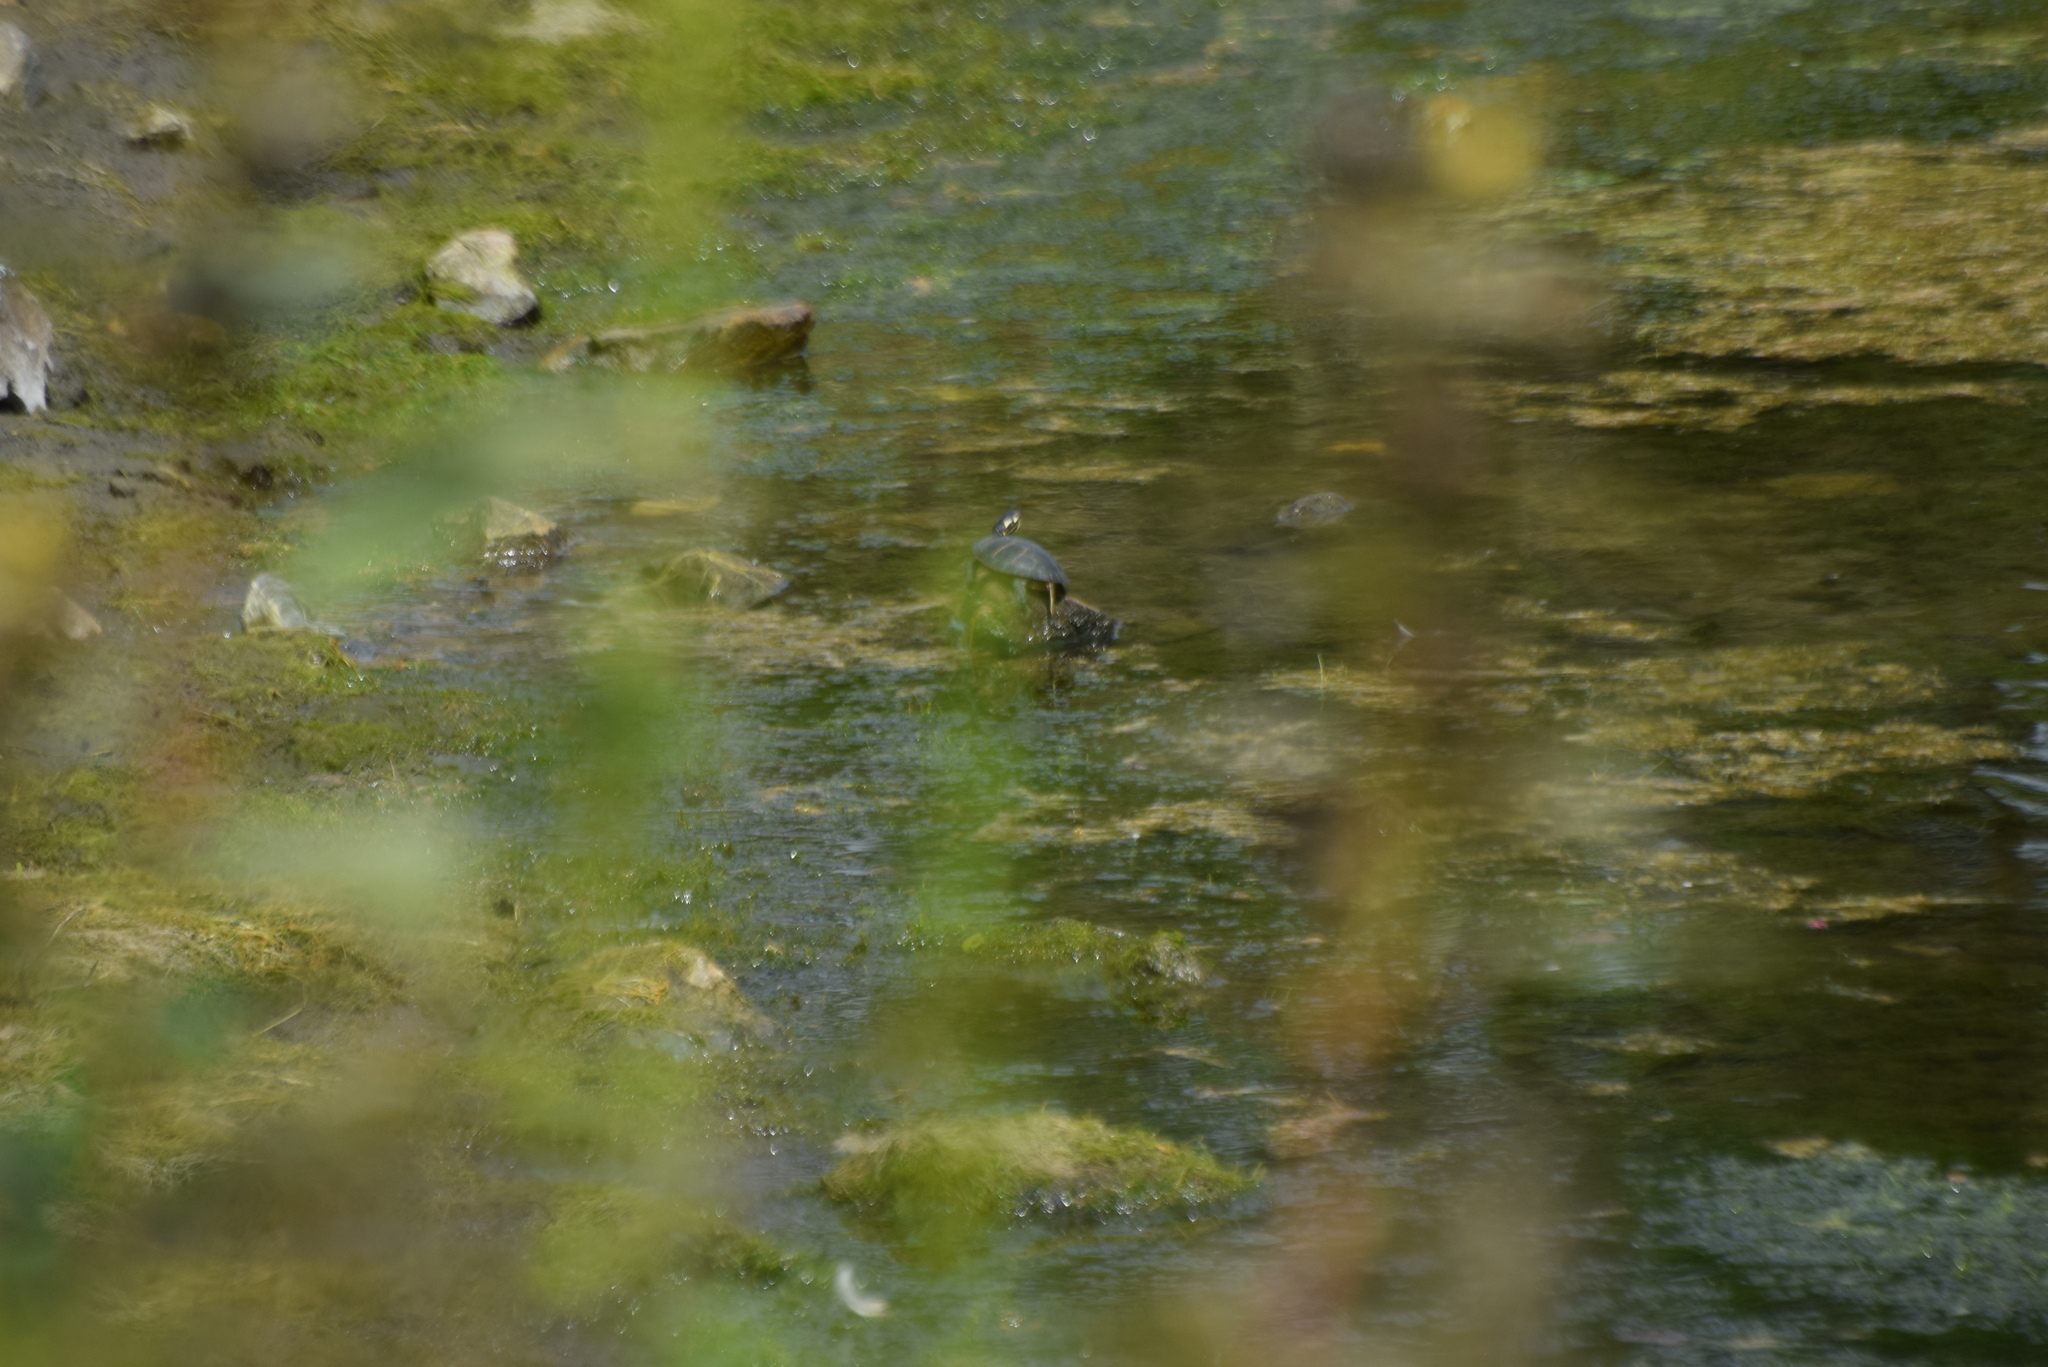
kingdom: Animalia
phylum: Chordata
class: Testudines
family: Emydidae
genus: Chrysemys
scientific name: Chrysemys picta
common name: Painted turtle
